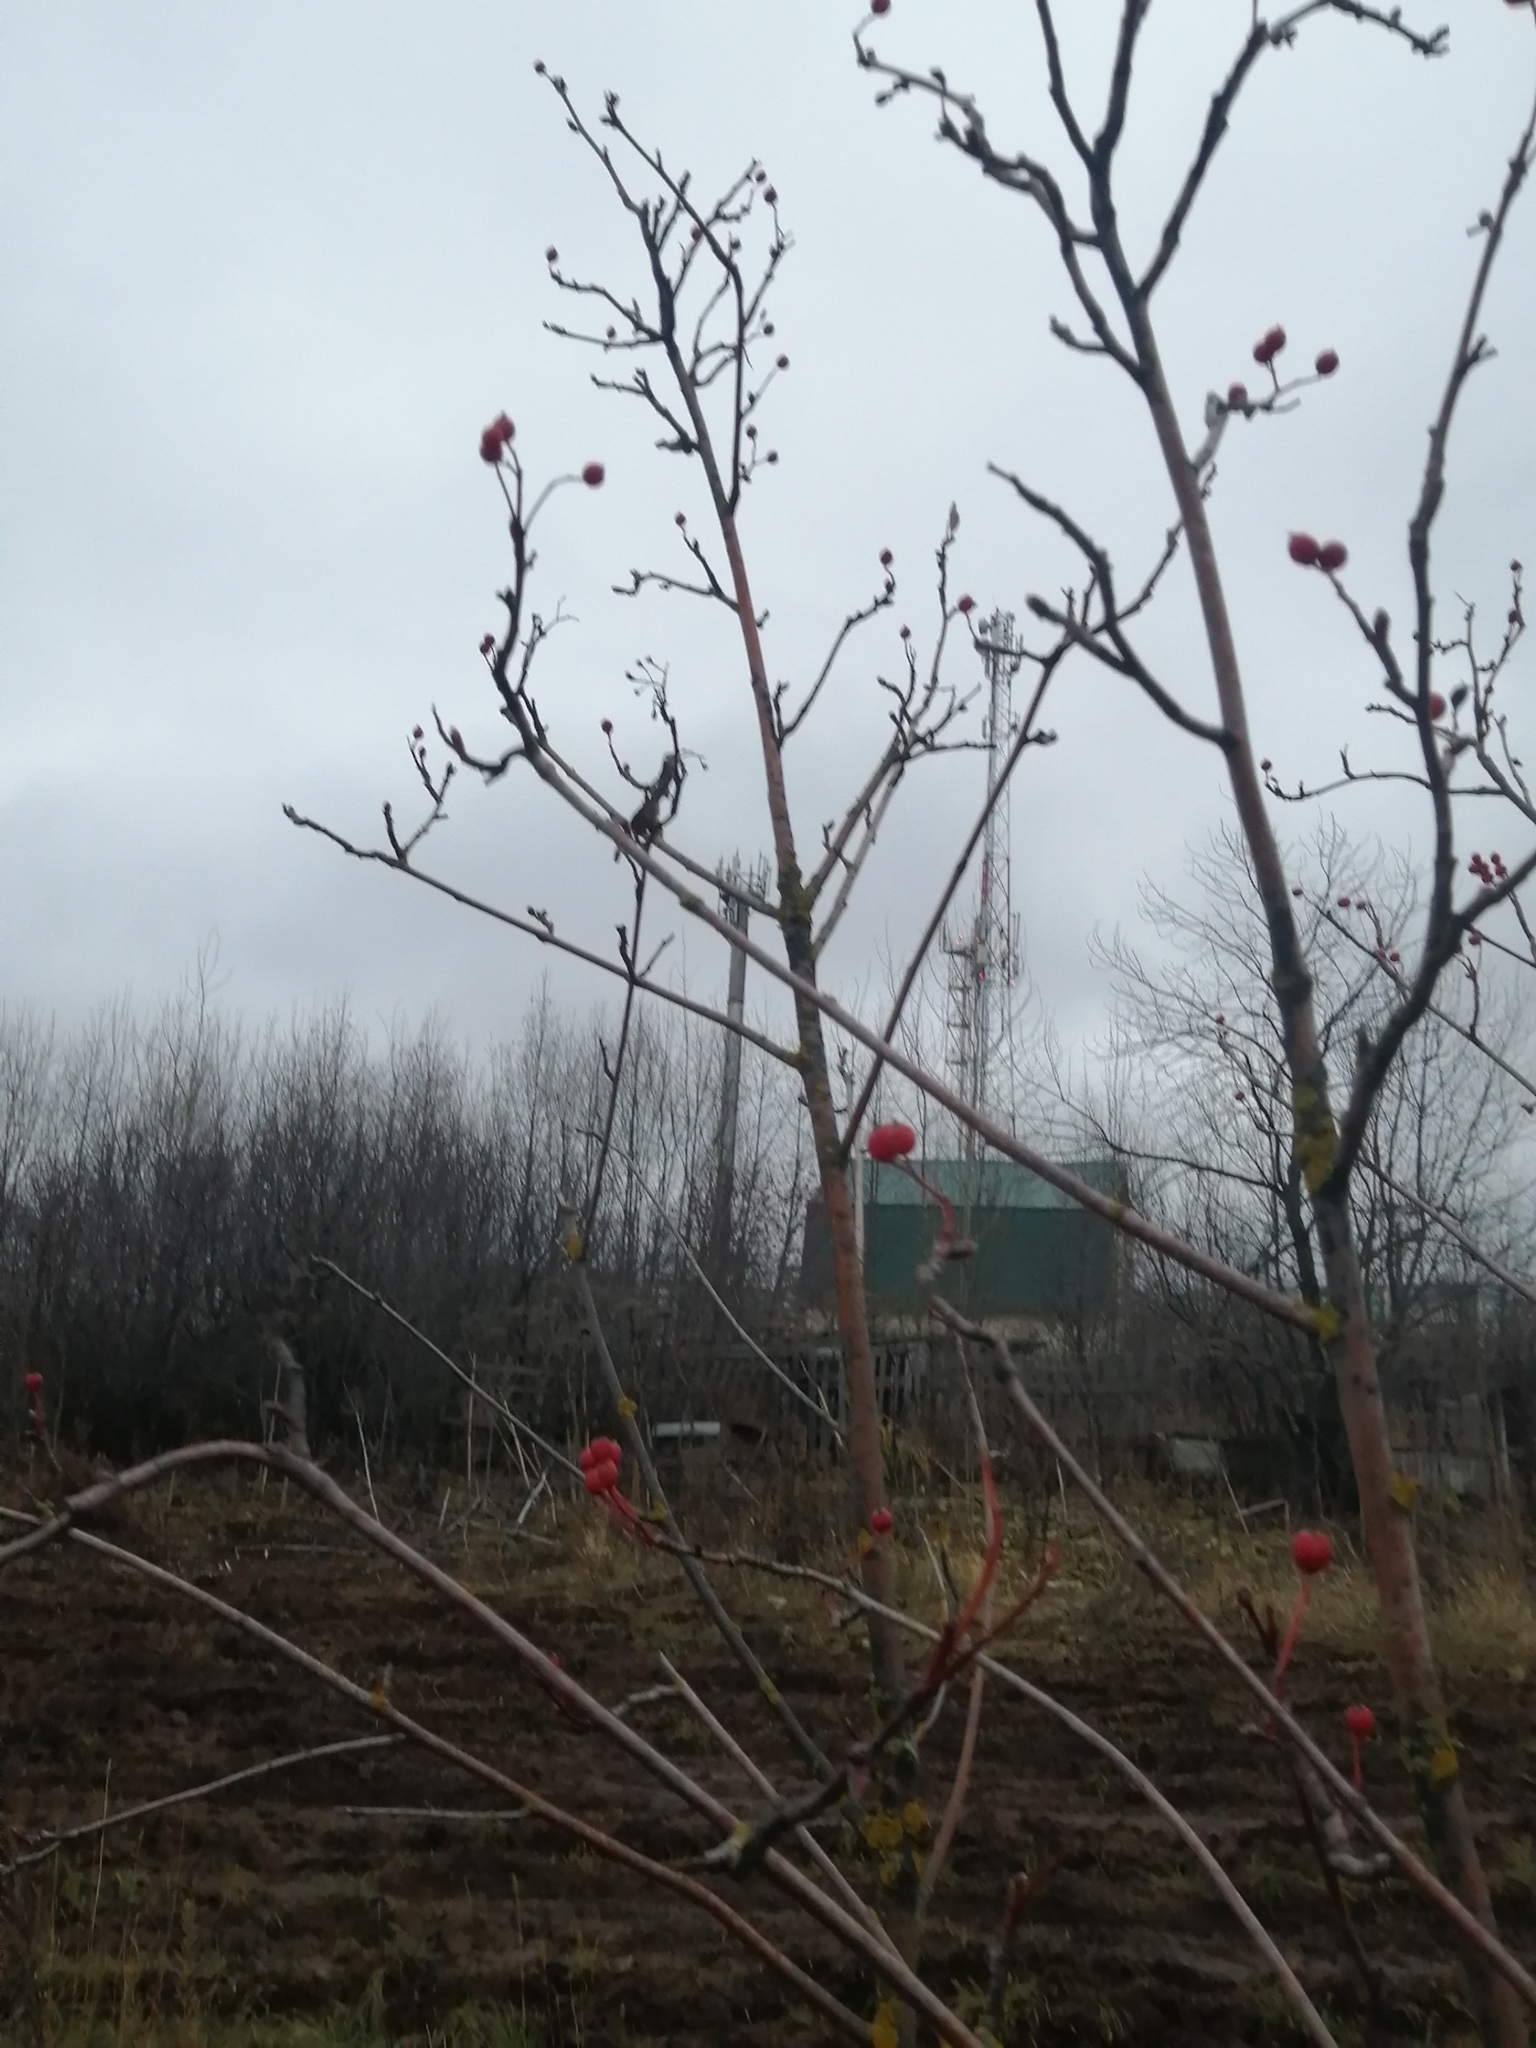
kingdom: Plantae
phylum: Tracheophyta
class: Magnoliopsida
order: Rosales
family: Rosaceae
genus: Sorbus
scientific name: Sorbus aucuparia
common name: Rowan
